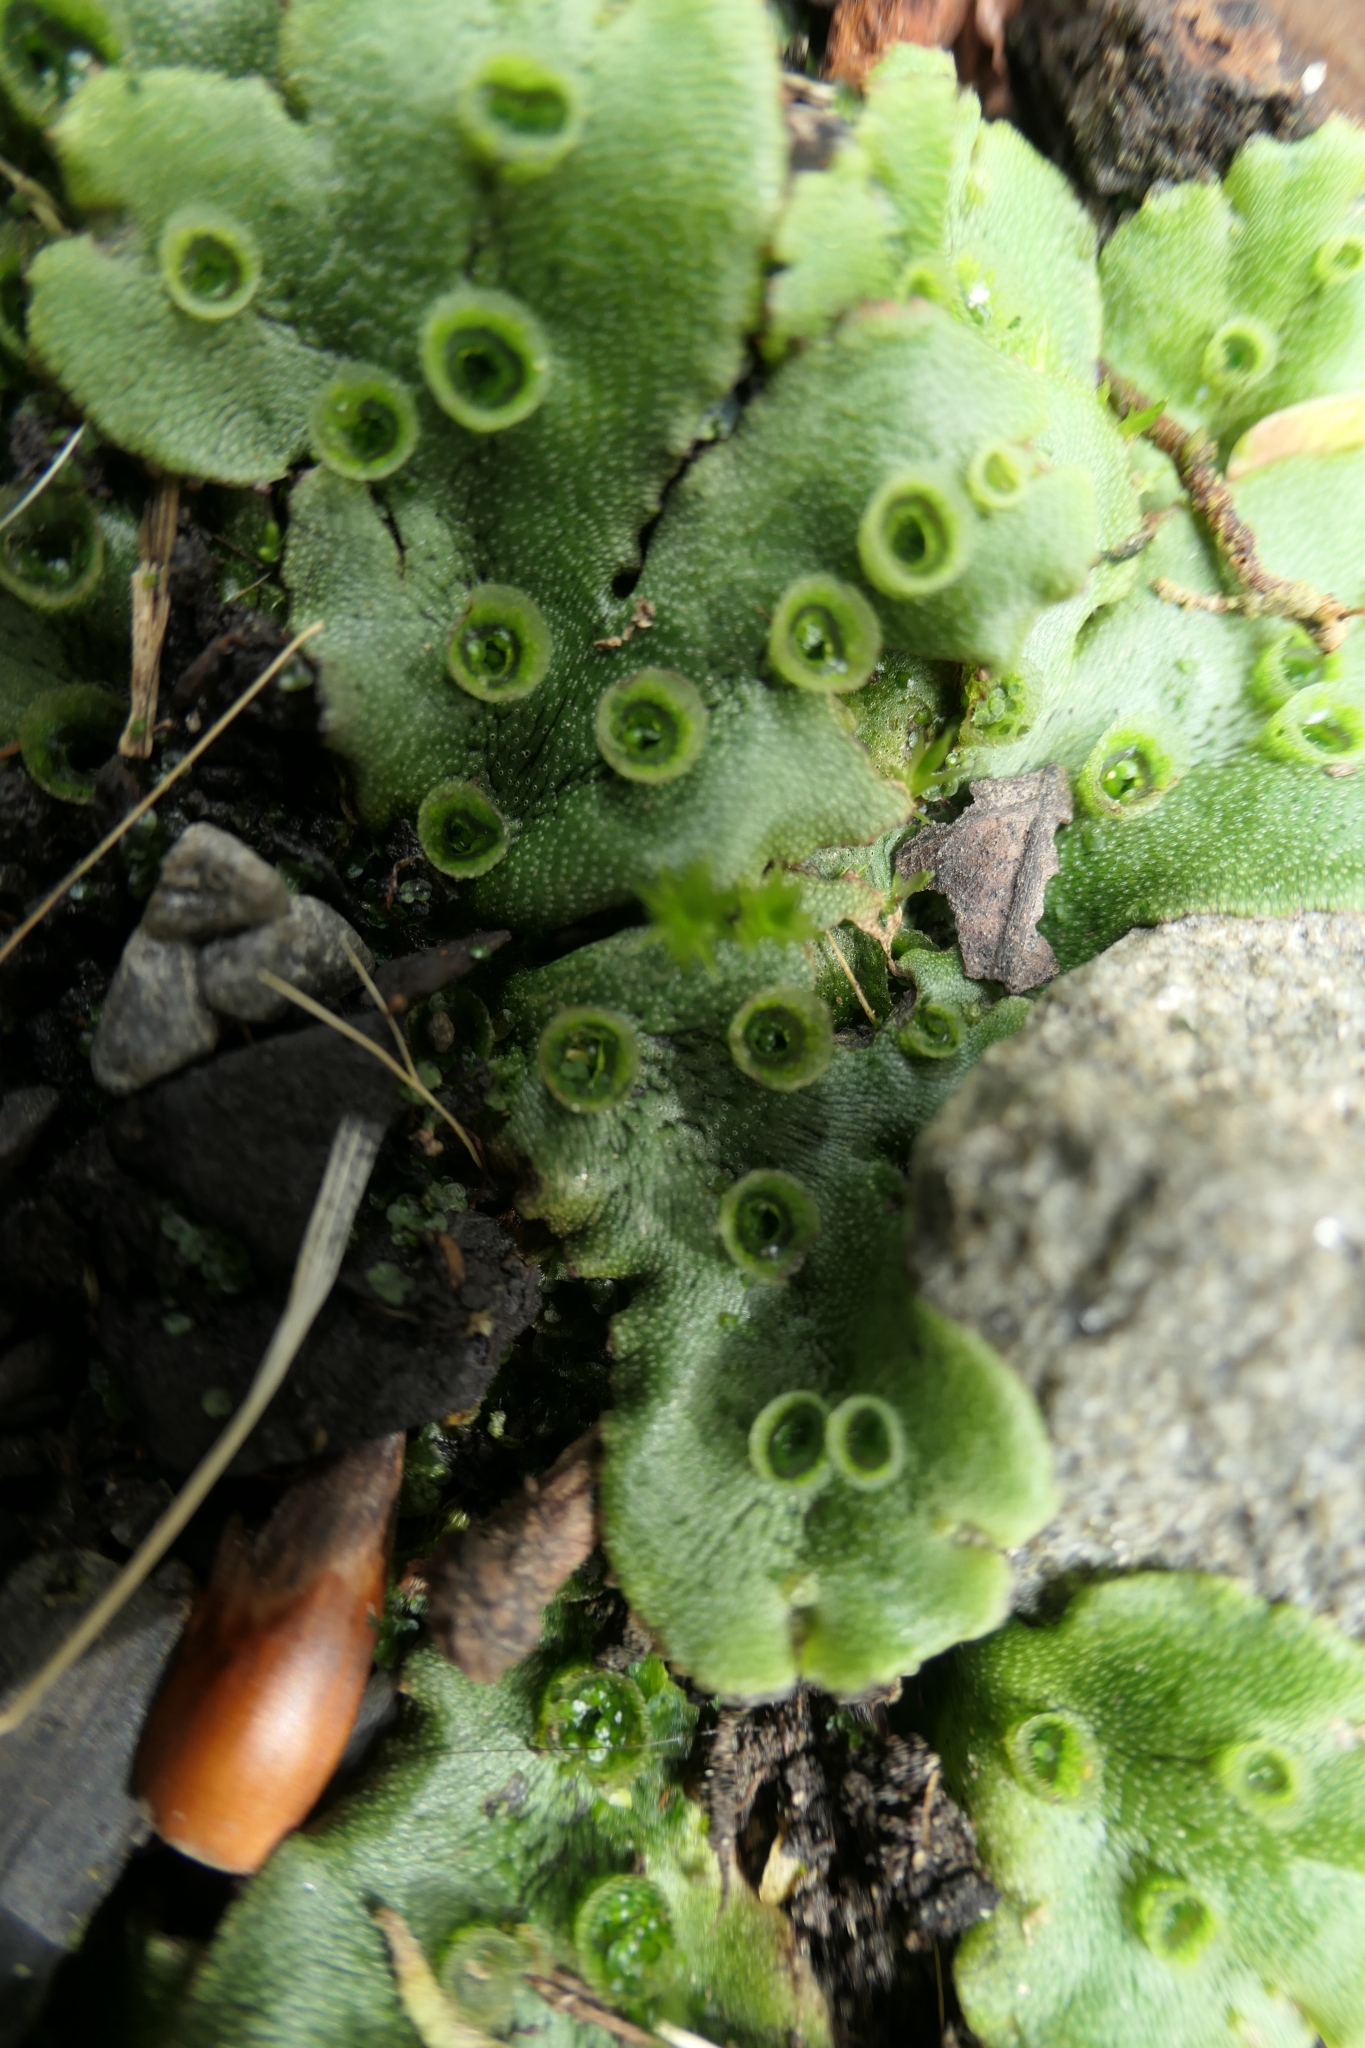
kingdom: Plantae
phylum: Marchantiophyta
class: Marchantiopsida
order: Marchantiales
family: Marchantiaceae
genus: Marchantia
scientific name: Marchantia polymorpha
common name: Common liverwort
